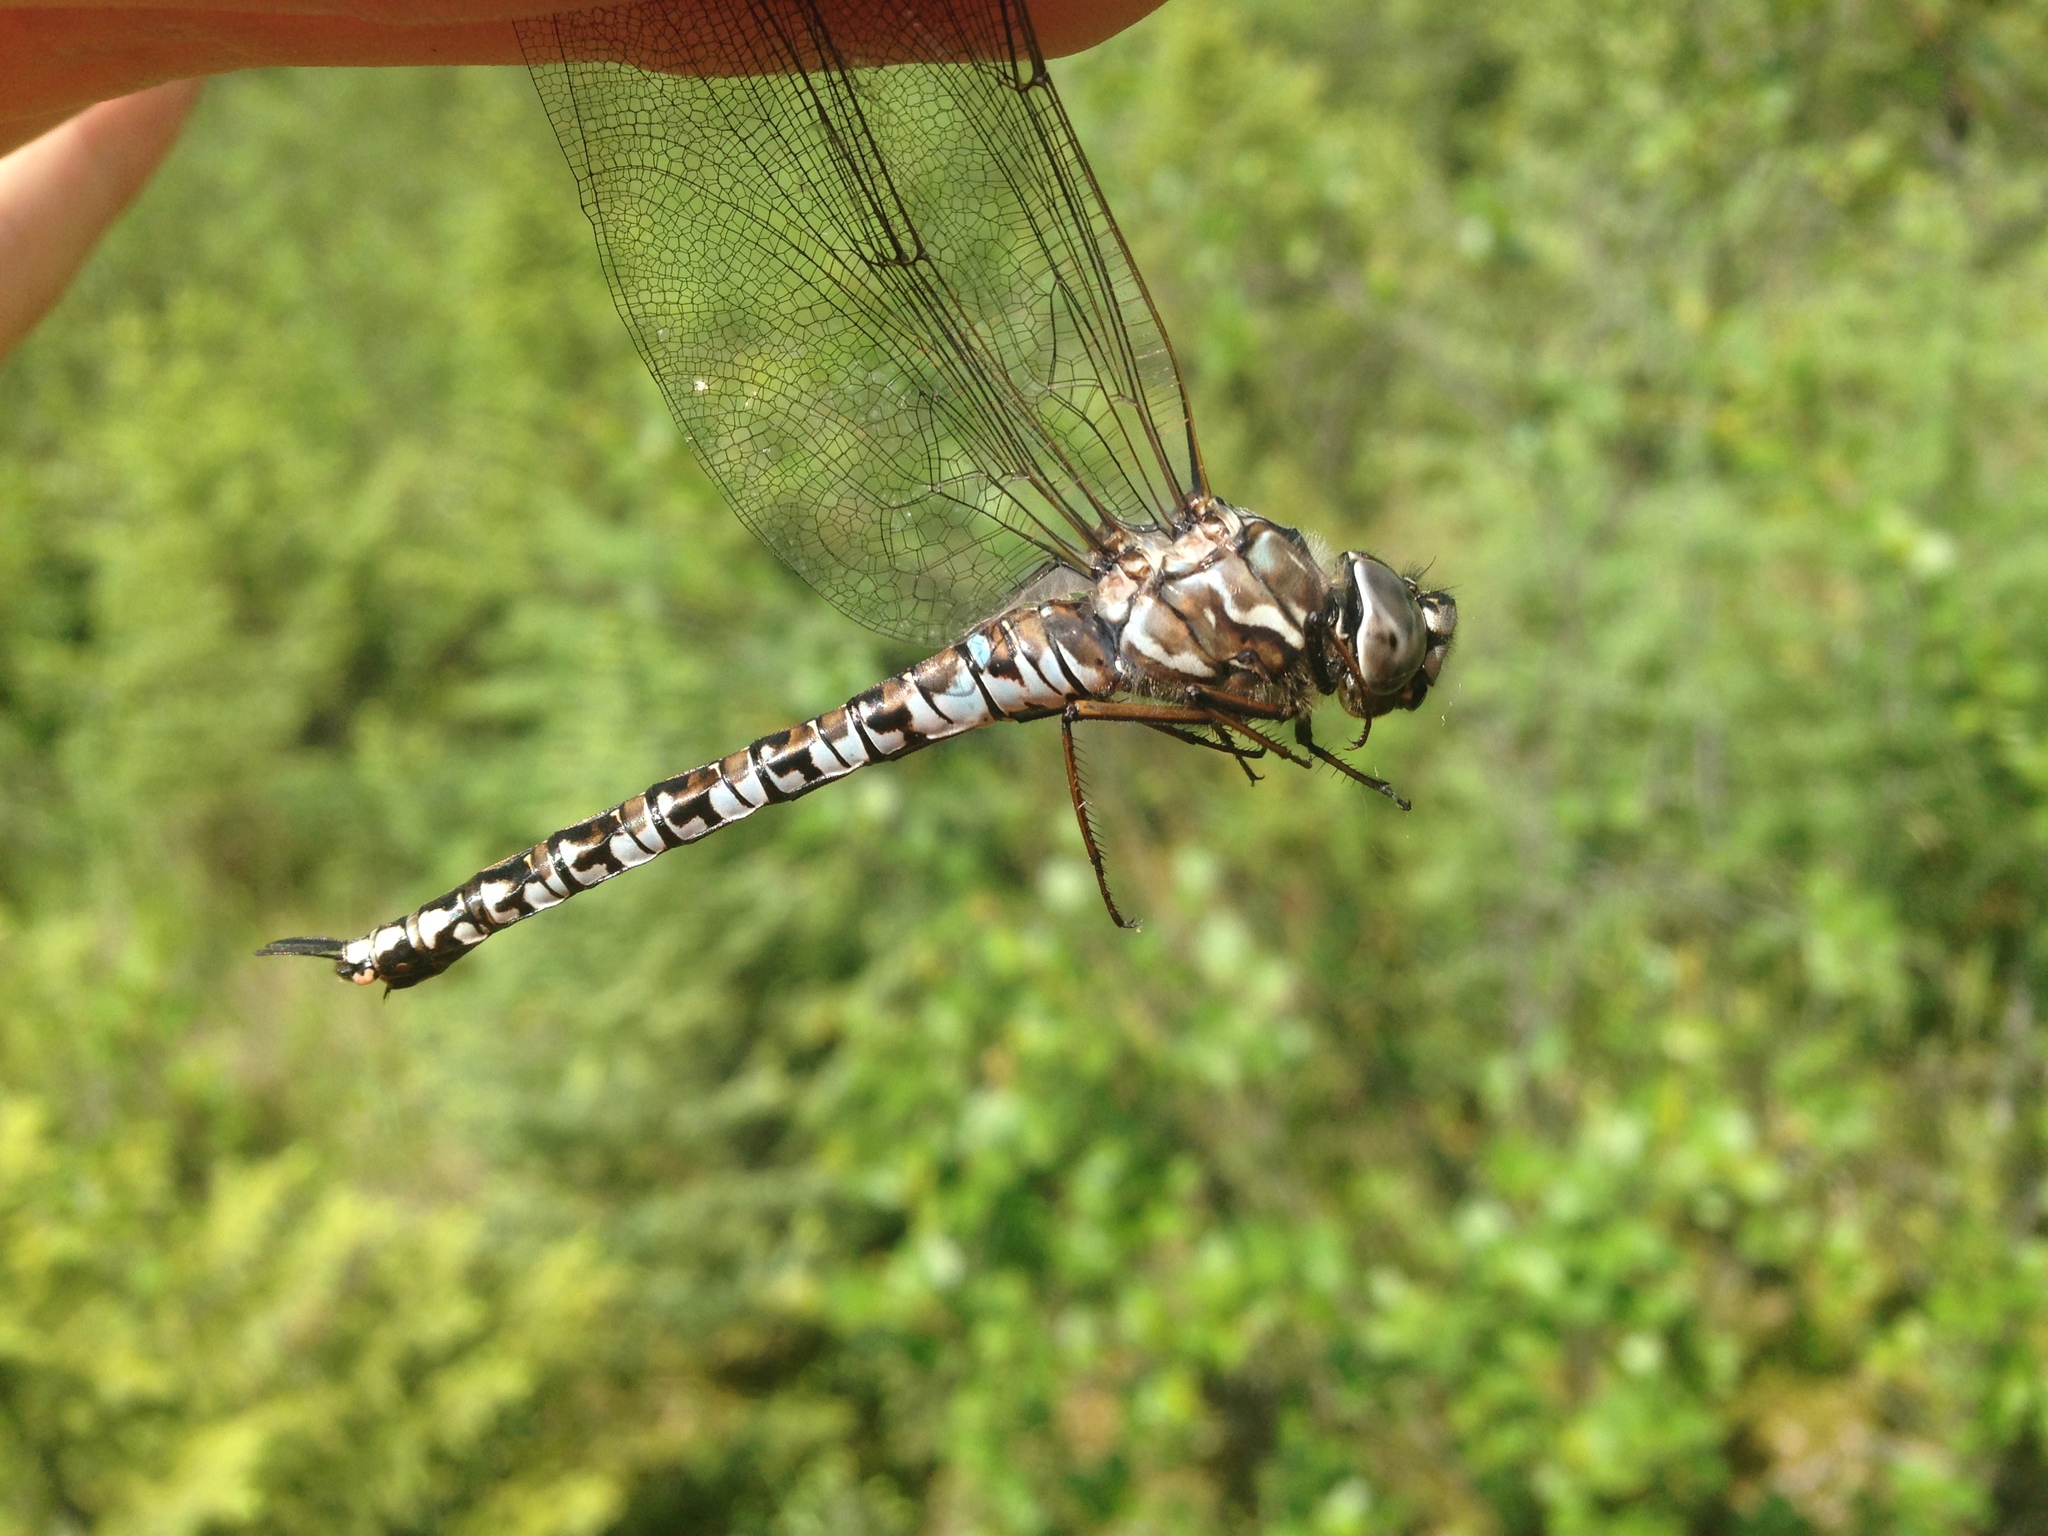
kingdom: Animalia
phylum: Arthropoda
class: Insecta
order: Odonata
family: Aeshnidae
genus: Aeshna
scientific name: Aeshna sitchensis
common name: Zigzag darner
